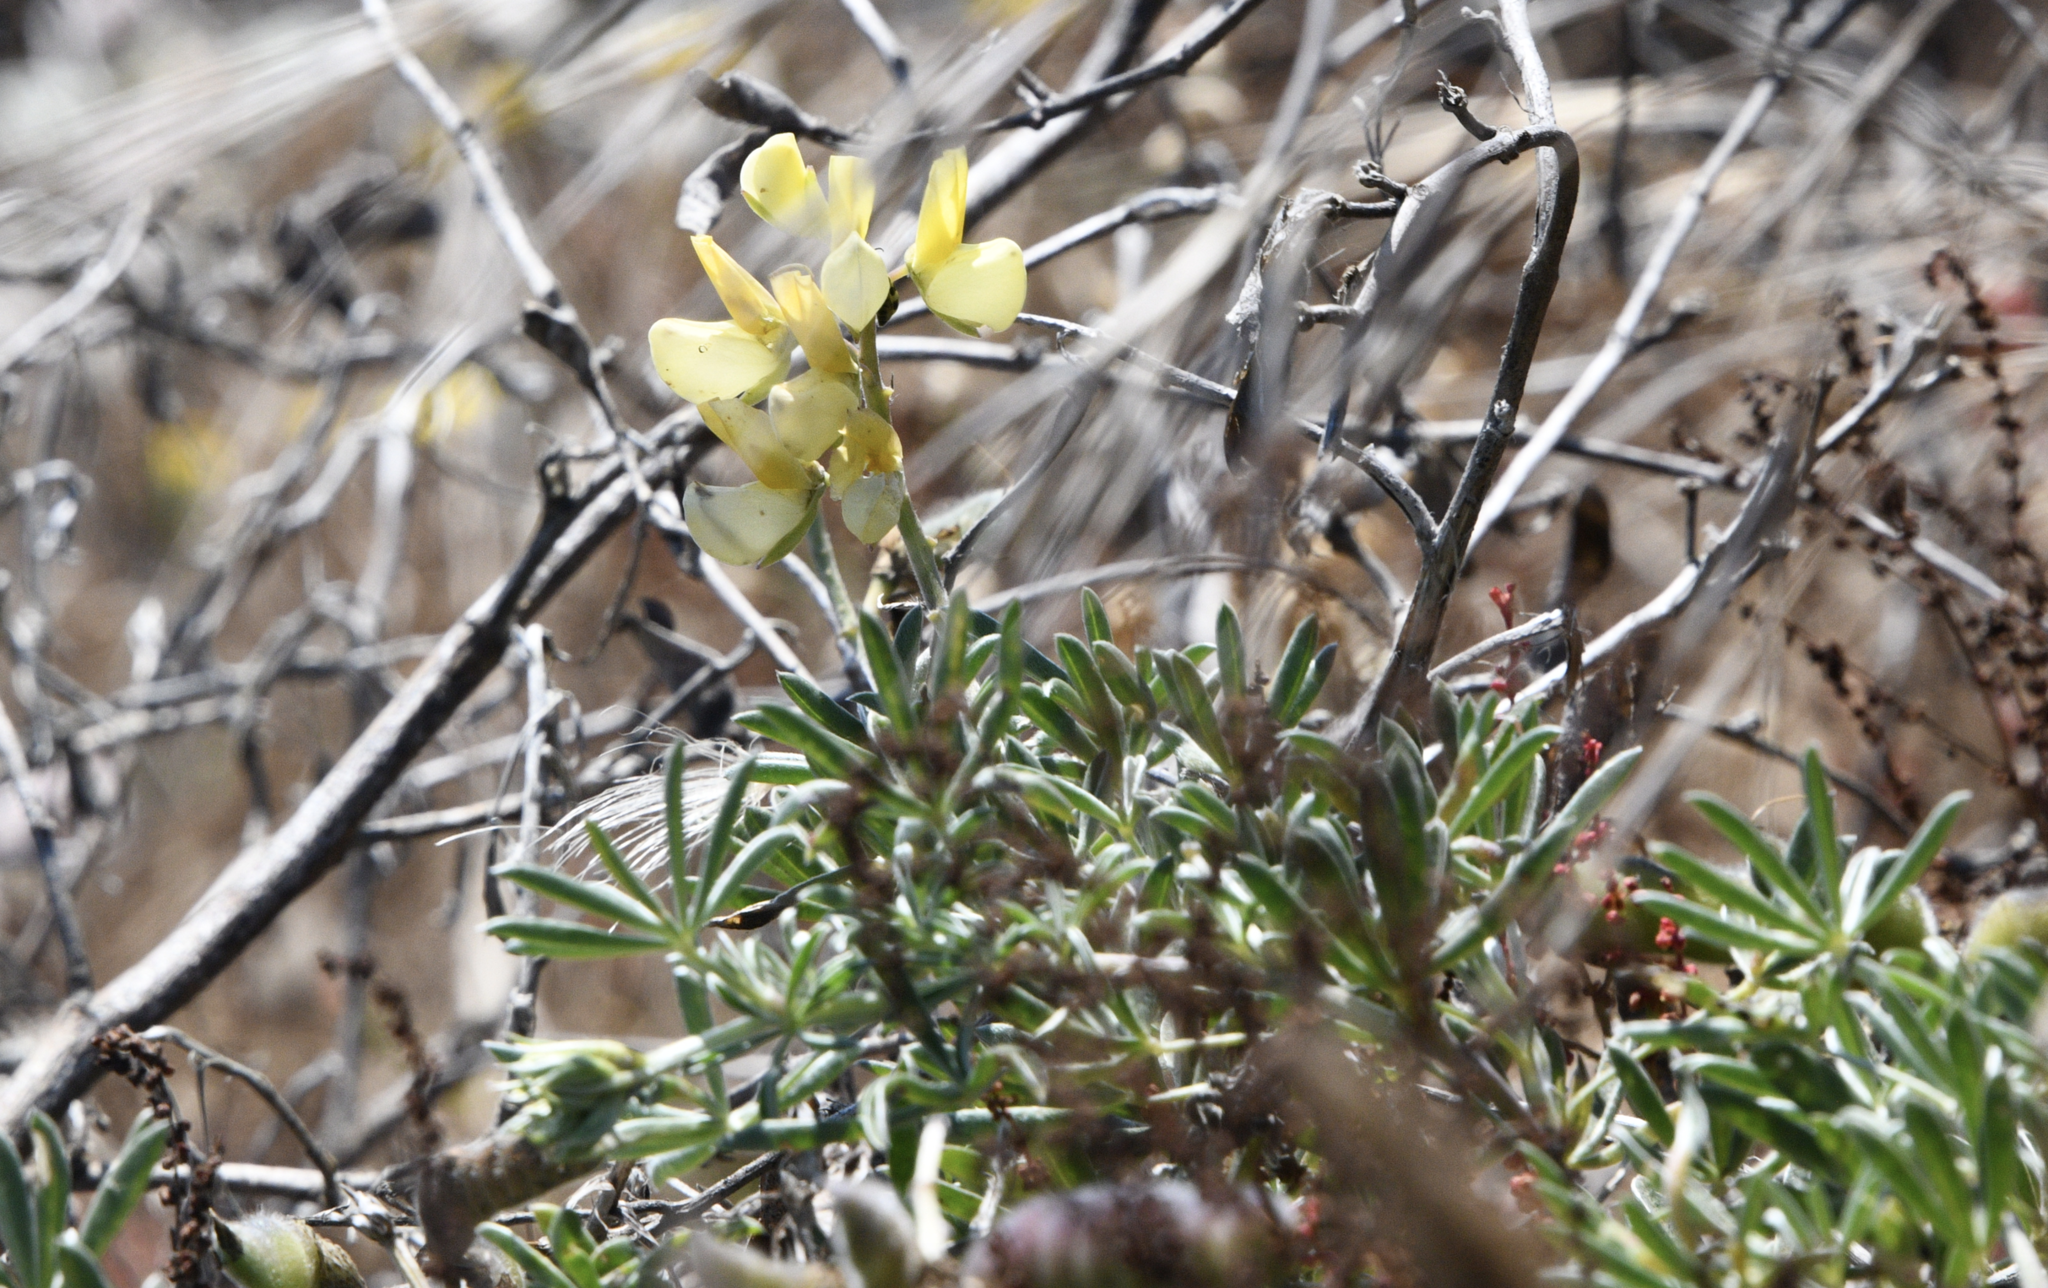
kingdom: Plantae
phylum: Tracheophyta
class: Magnoliopsida
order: Fabales
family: Fabaceae
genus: Lupinus
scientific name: Lupinus arboreus
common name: Yellow bush lupine
